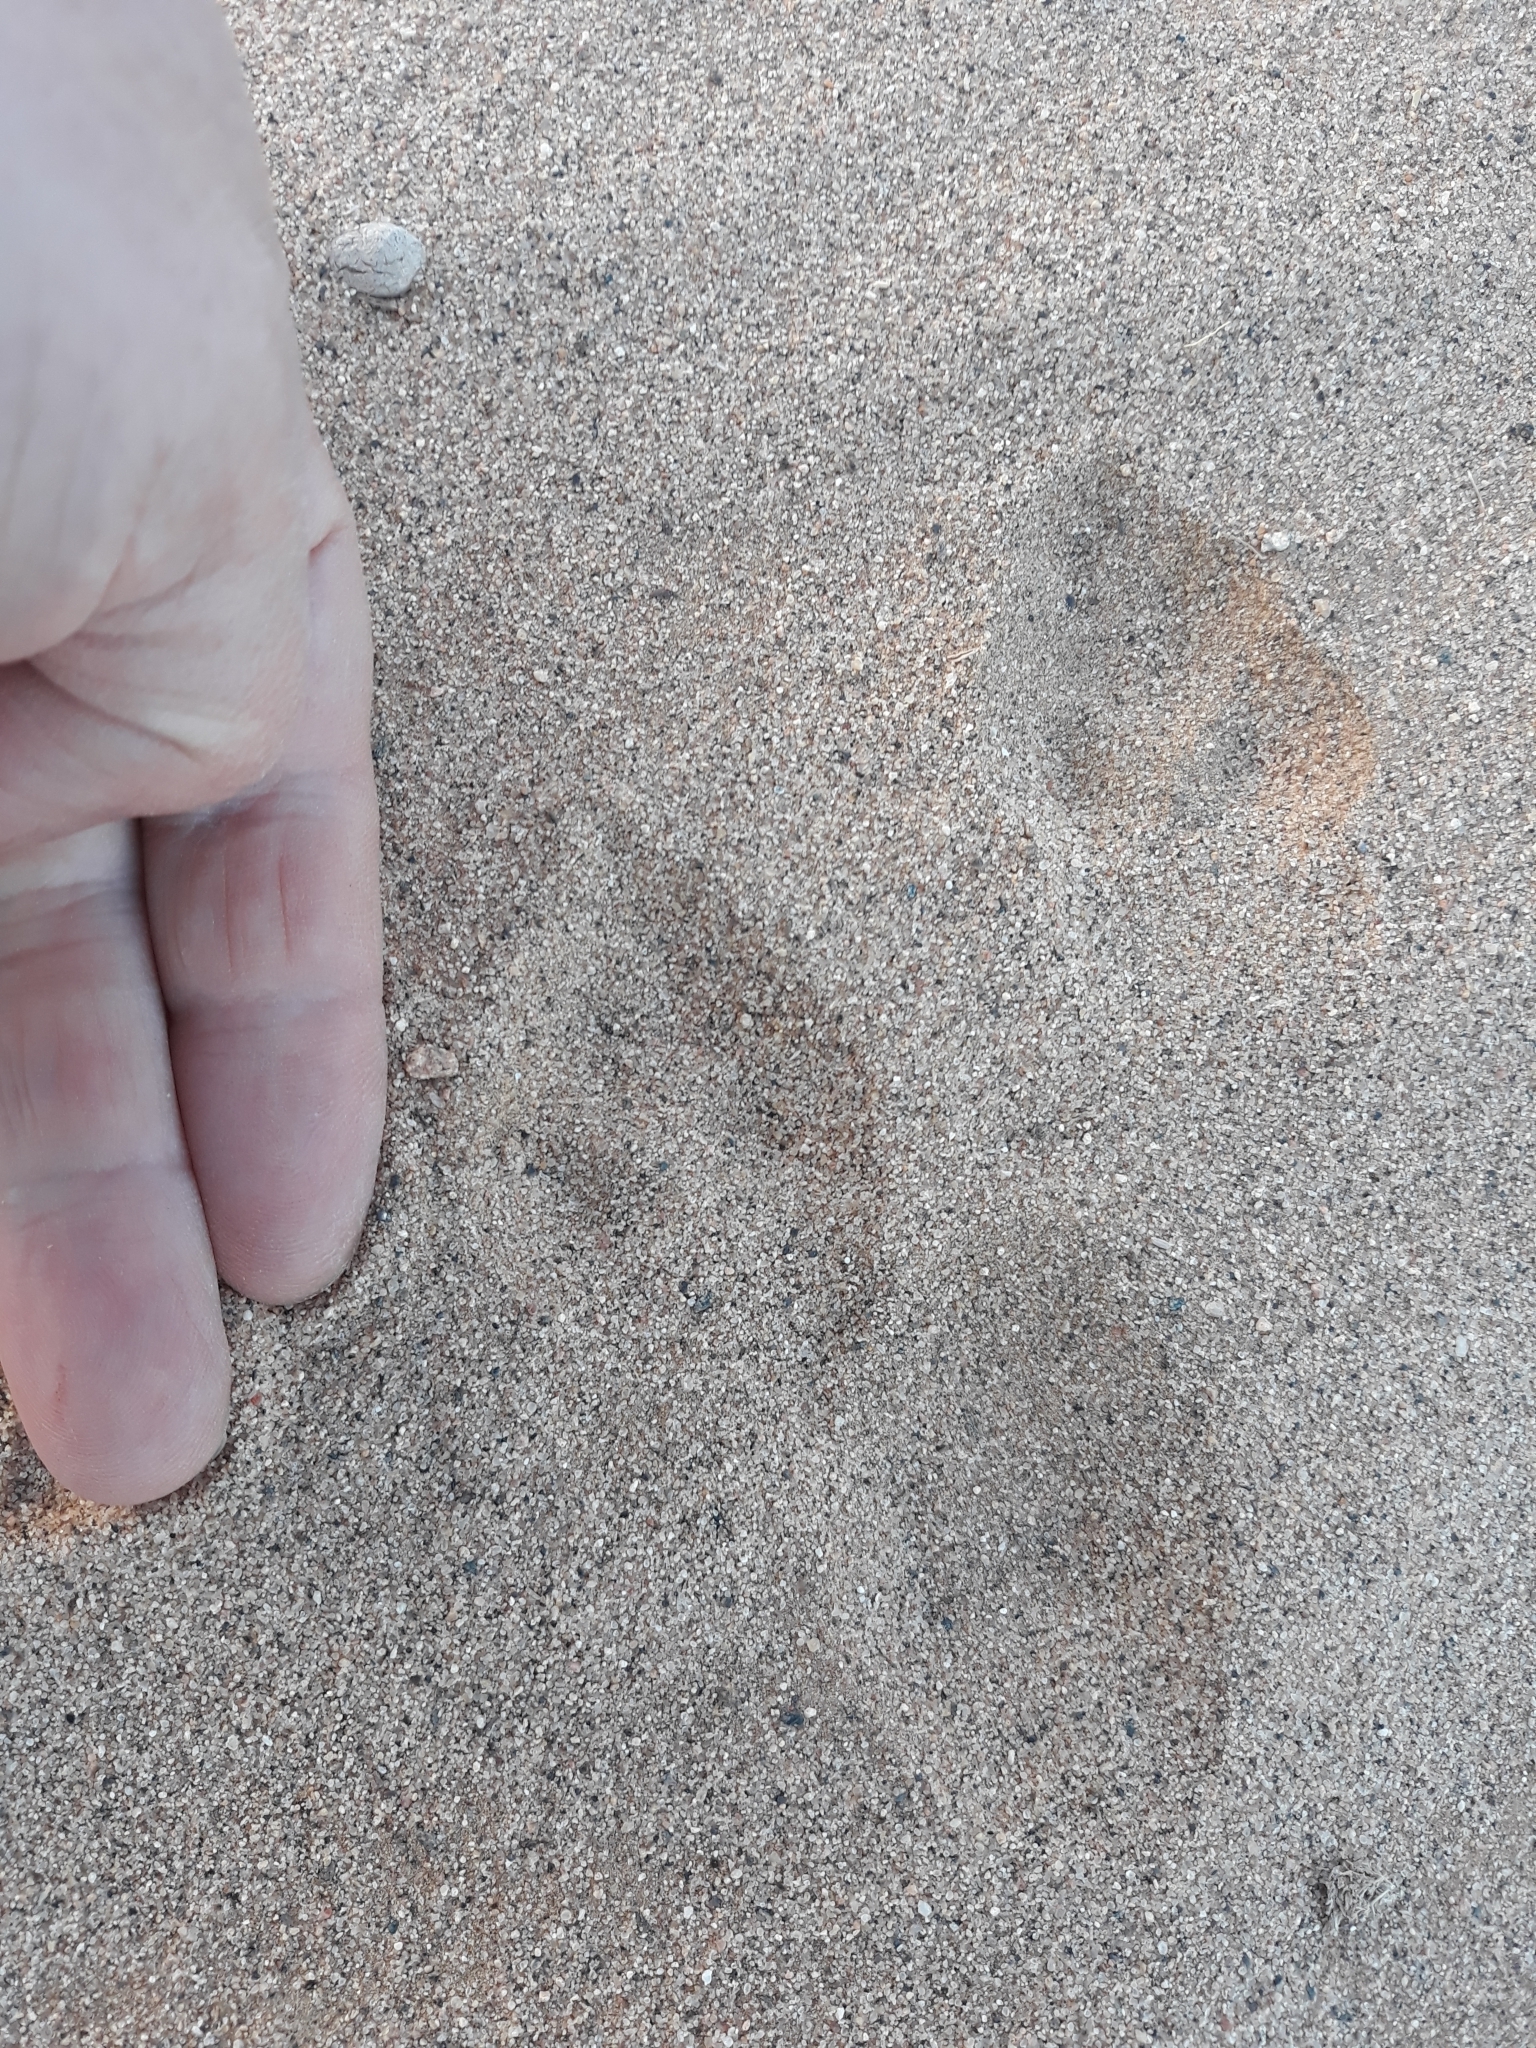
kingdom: Animalia
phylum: Chordata
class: Mammalia
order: Lagomorpha
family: Leporidae
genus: Lepus
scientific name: Lepus capensis
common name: Cape hare
